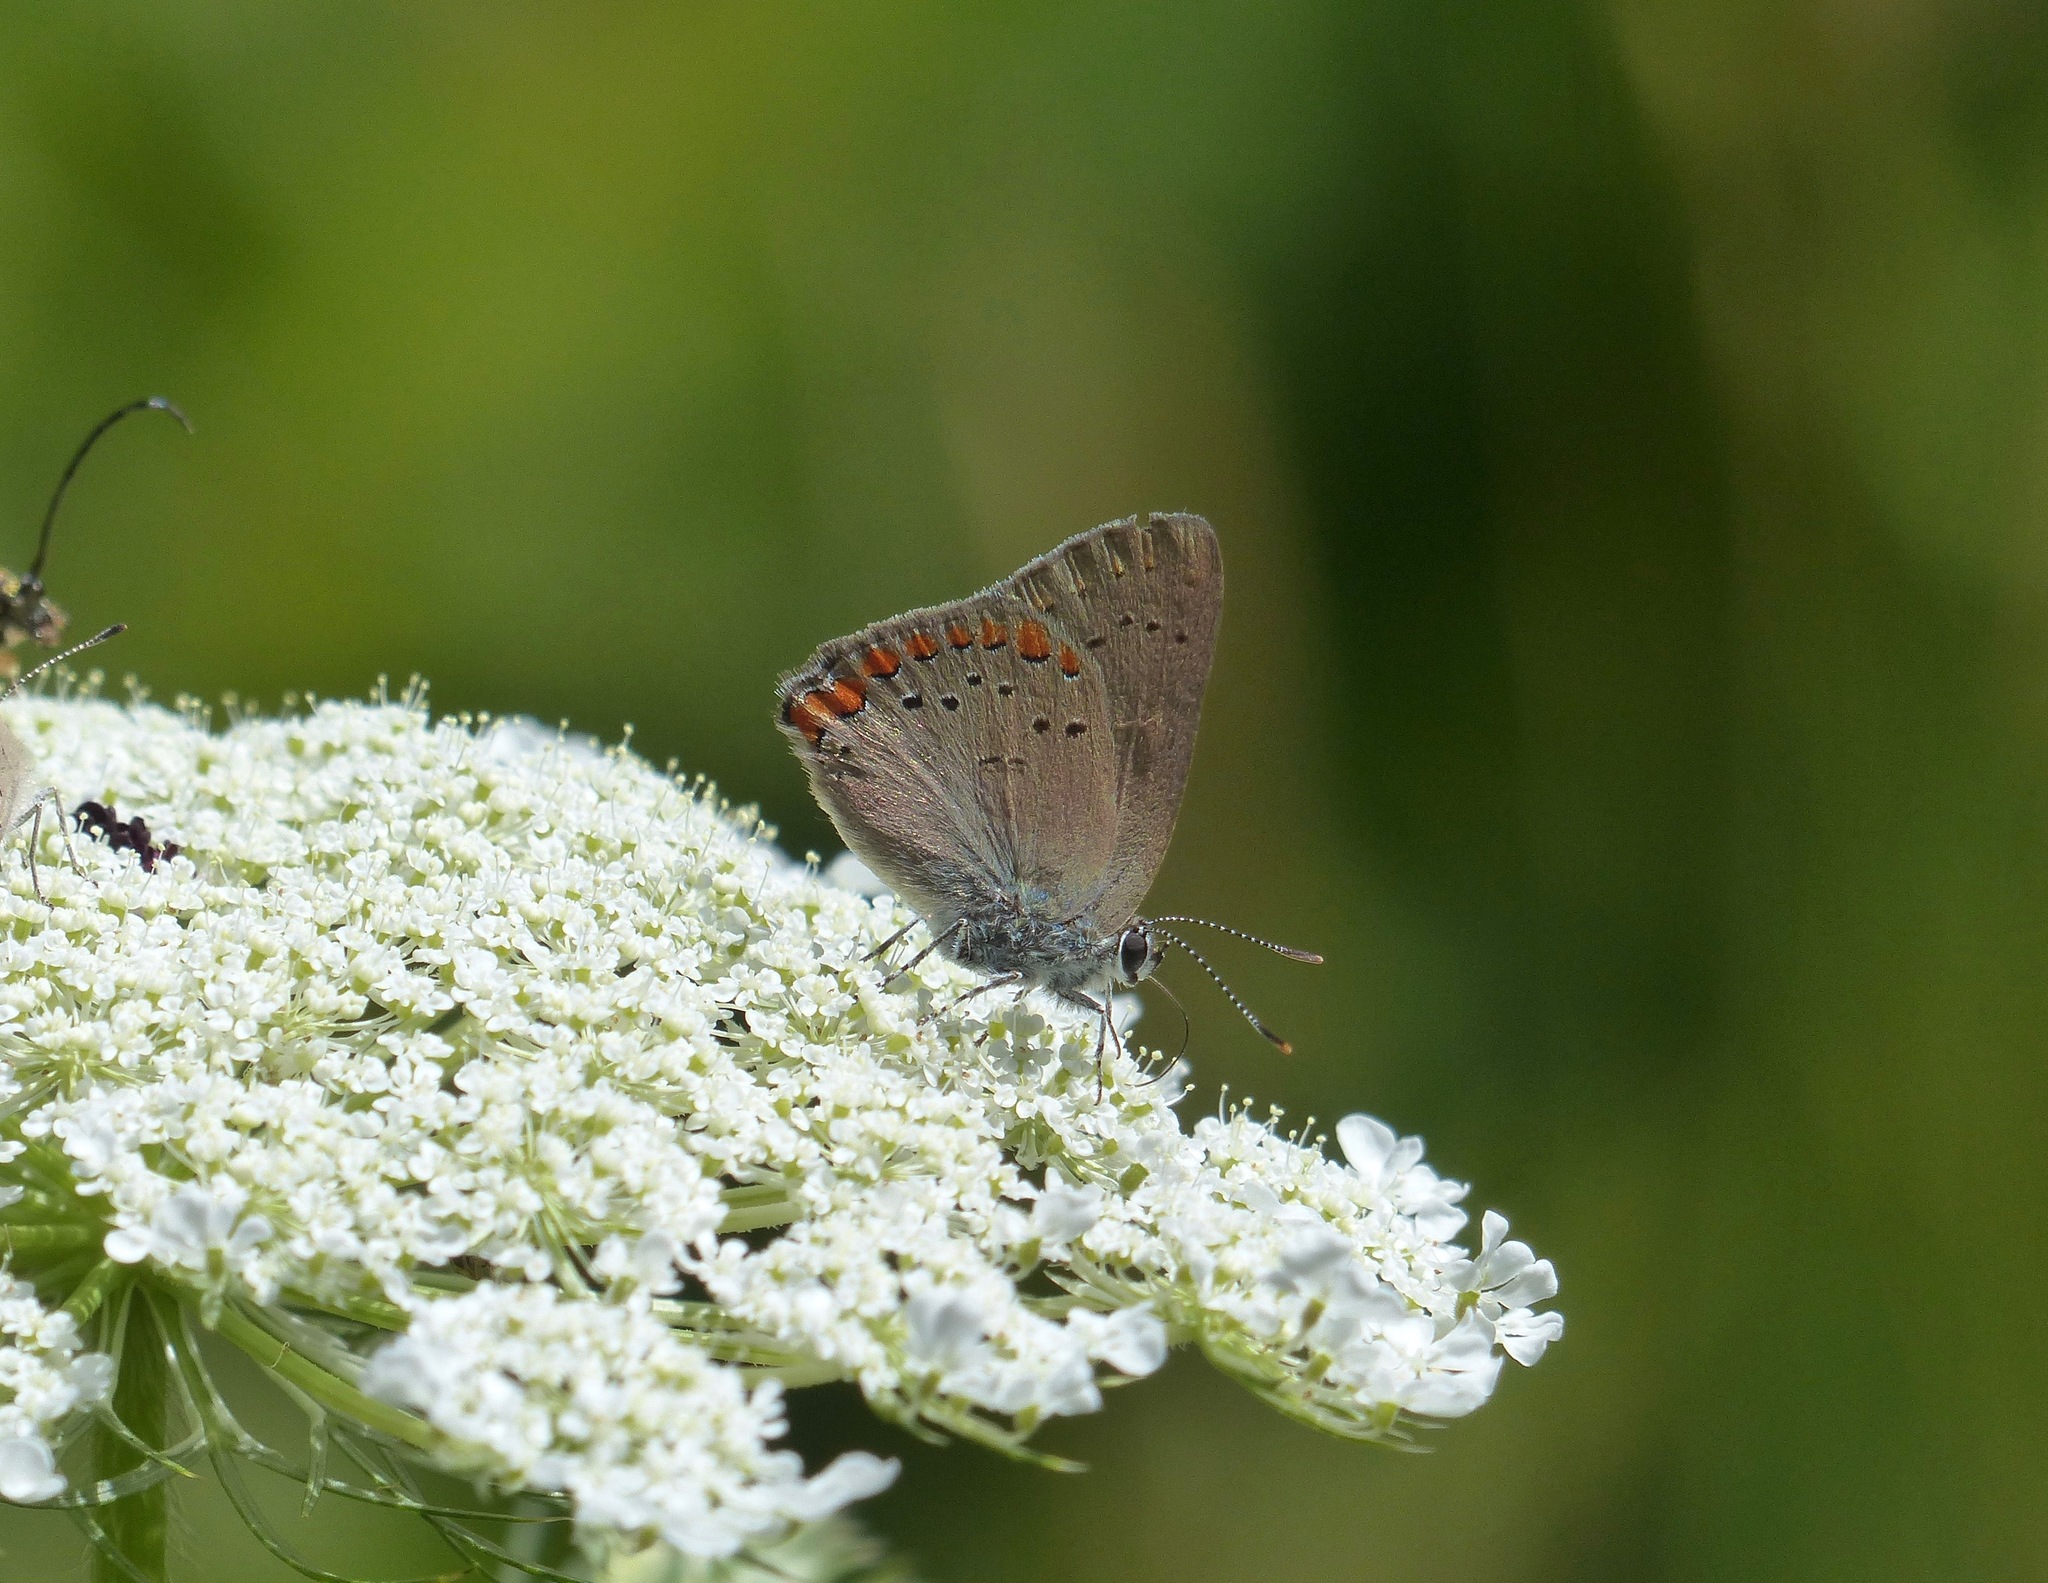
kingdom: Animalia
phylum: Arthropoda
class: Insecta
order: Lepidoptera
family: Lycaenidae
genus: Harkenclenus
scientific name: Harkenclenus titus
